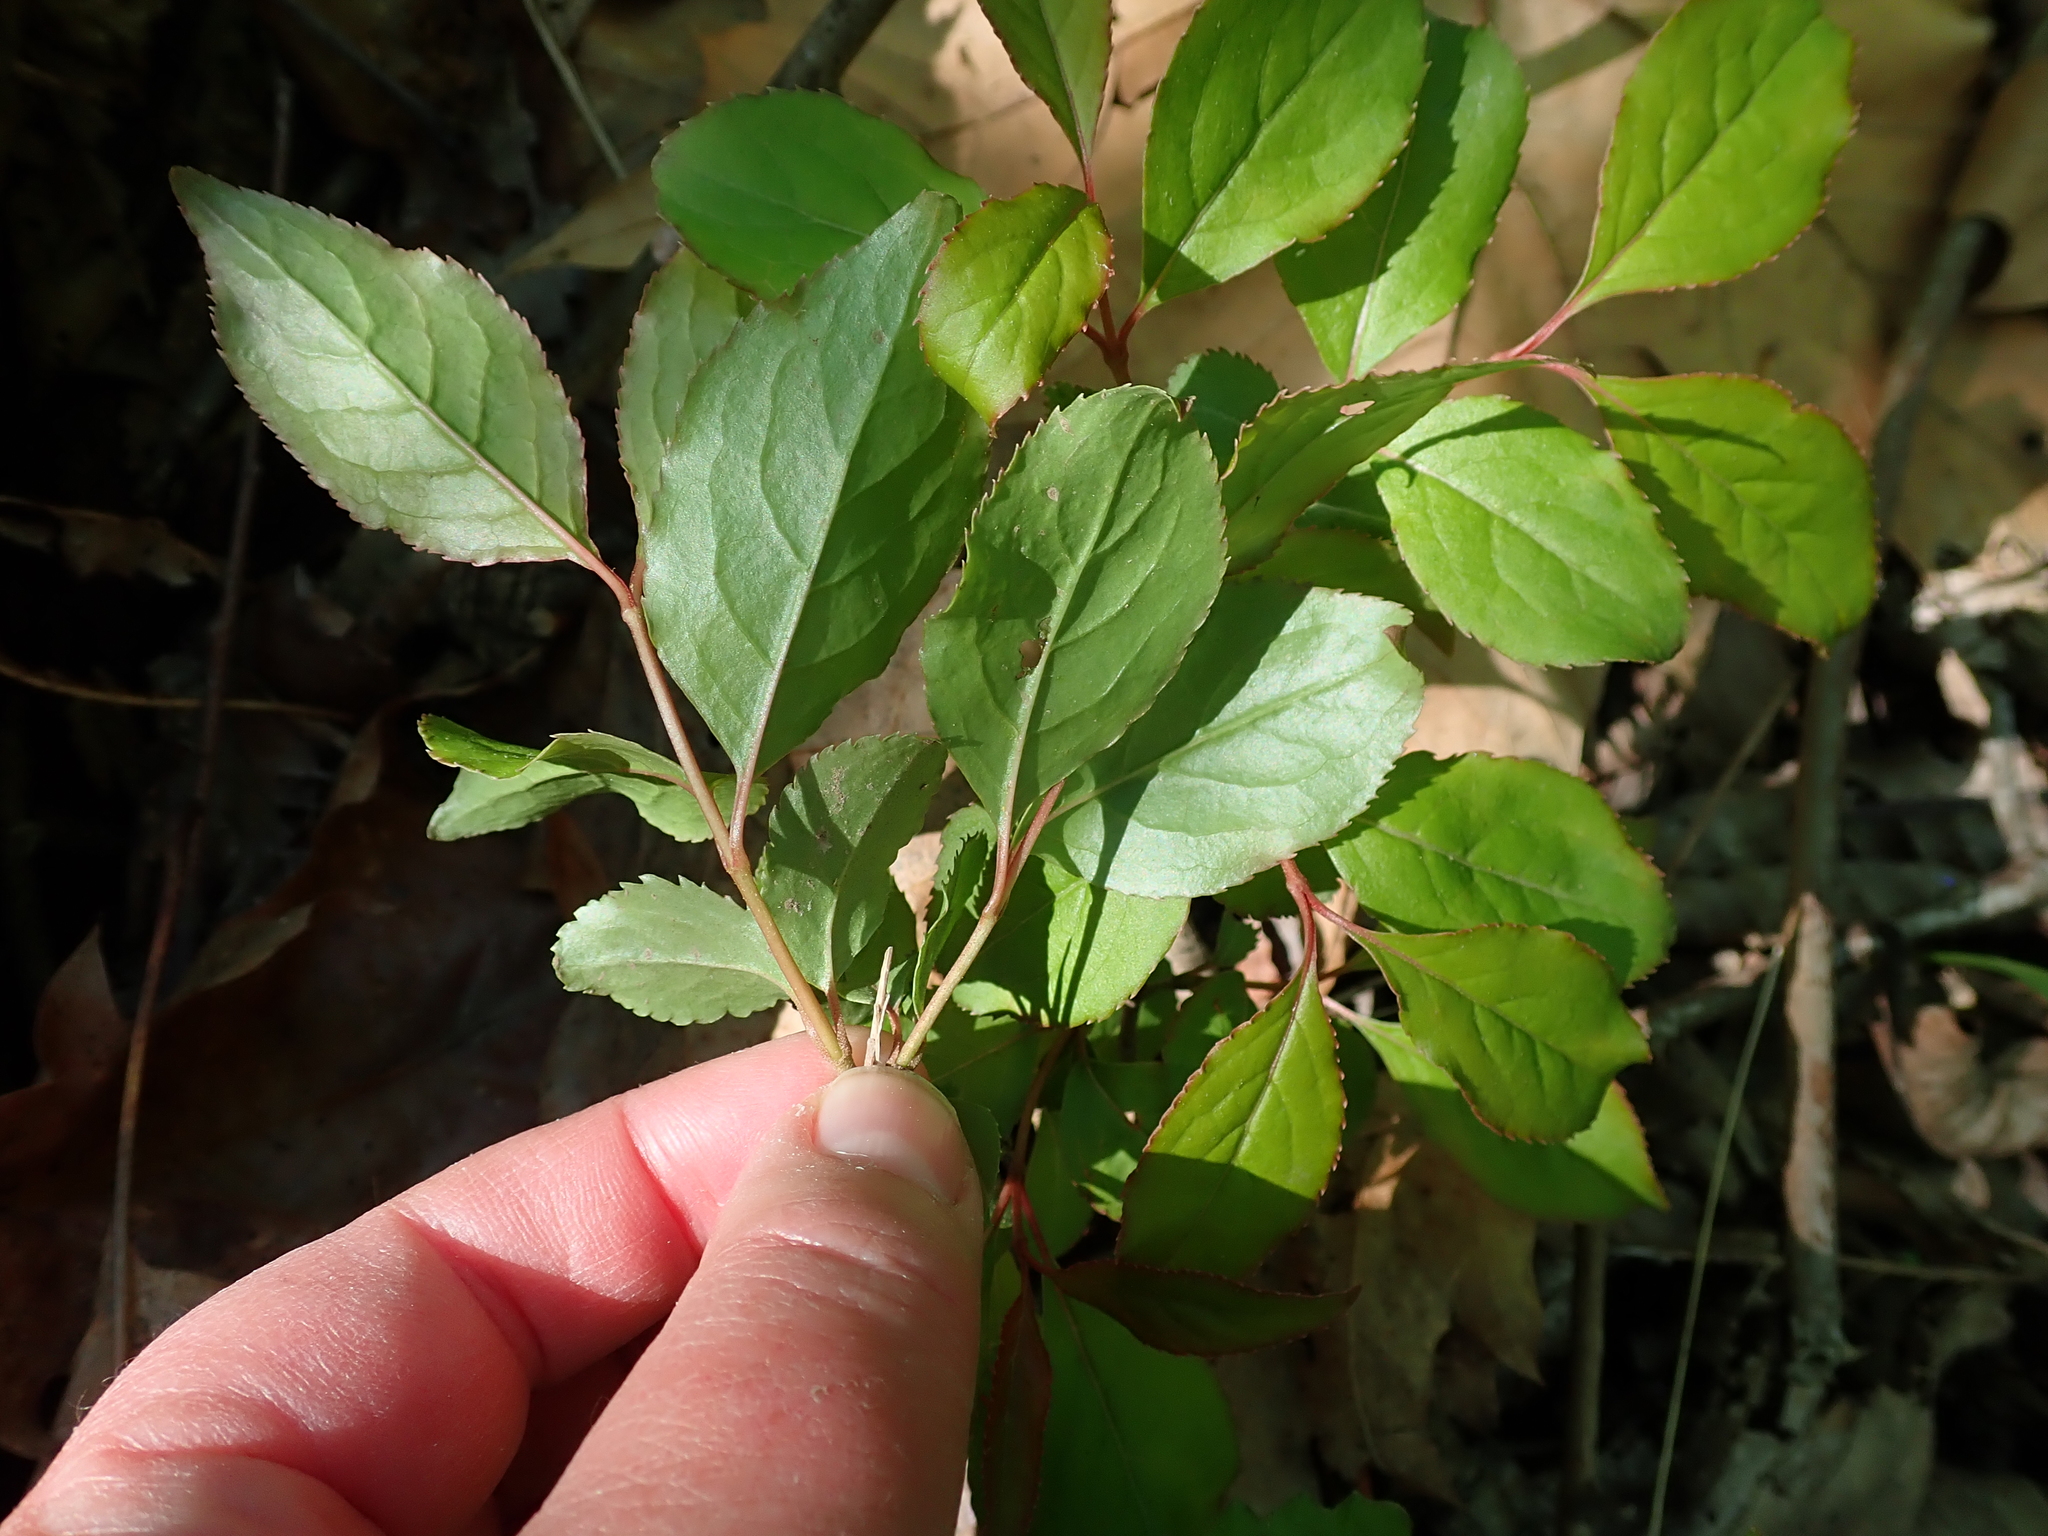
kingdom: Plantae
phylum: Tracheophyta
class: Magnoliopsida
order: Dipsacales
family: Viburnaceae
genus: Viburnum
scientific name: Viburnum prunifolium
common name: Black haw
